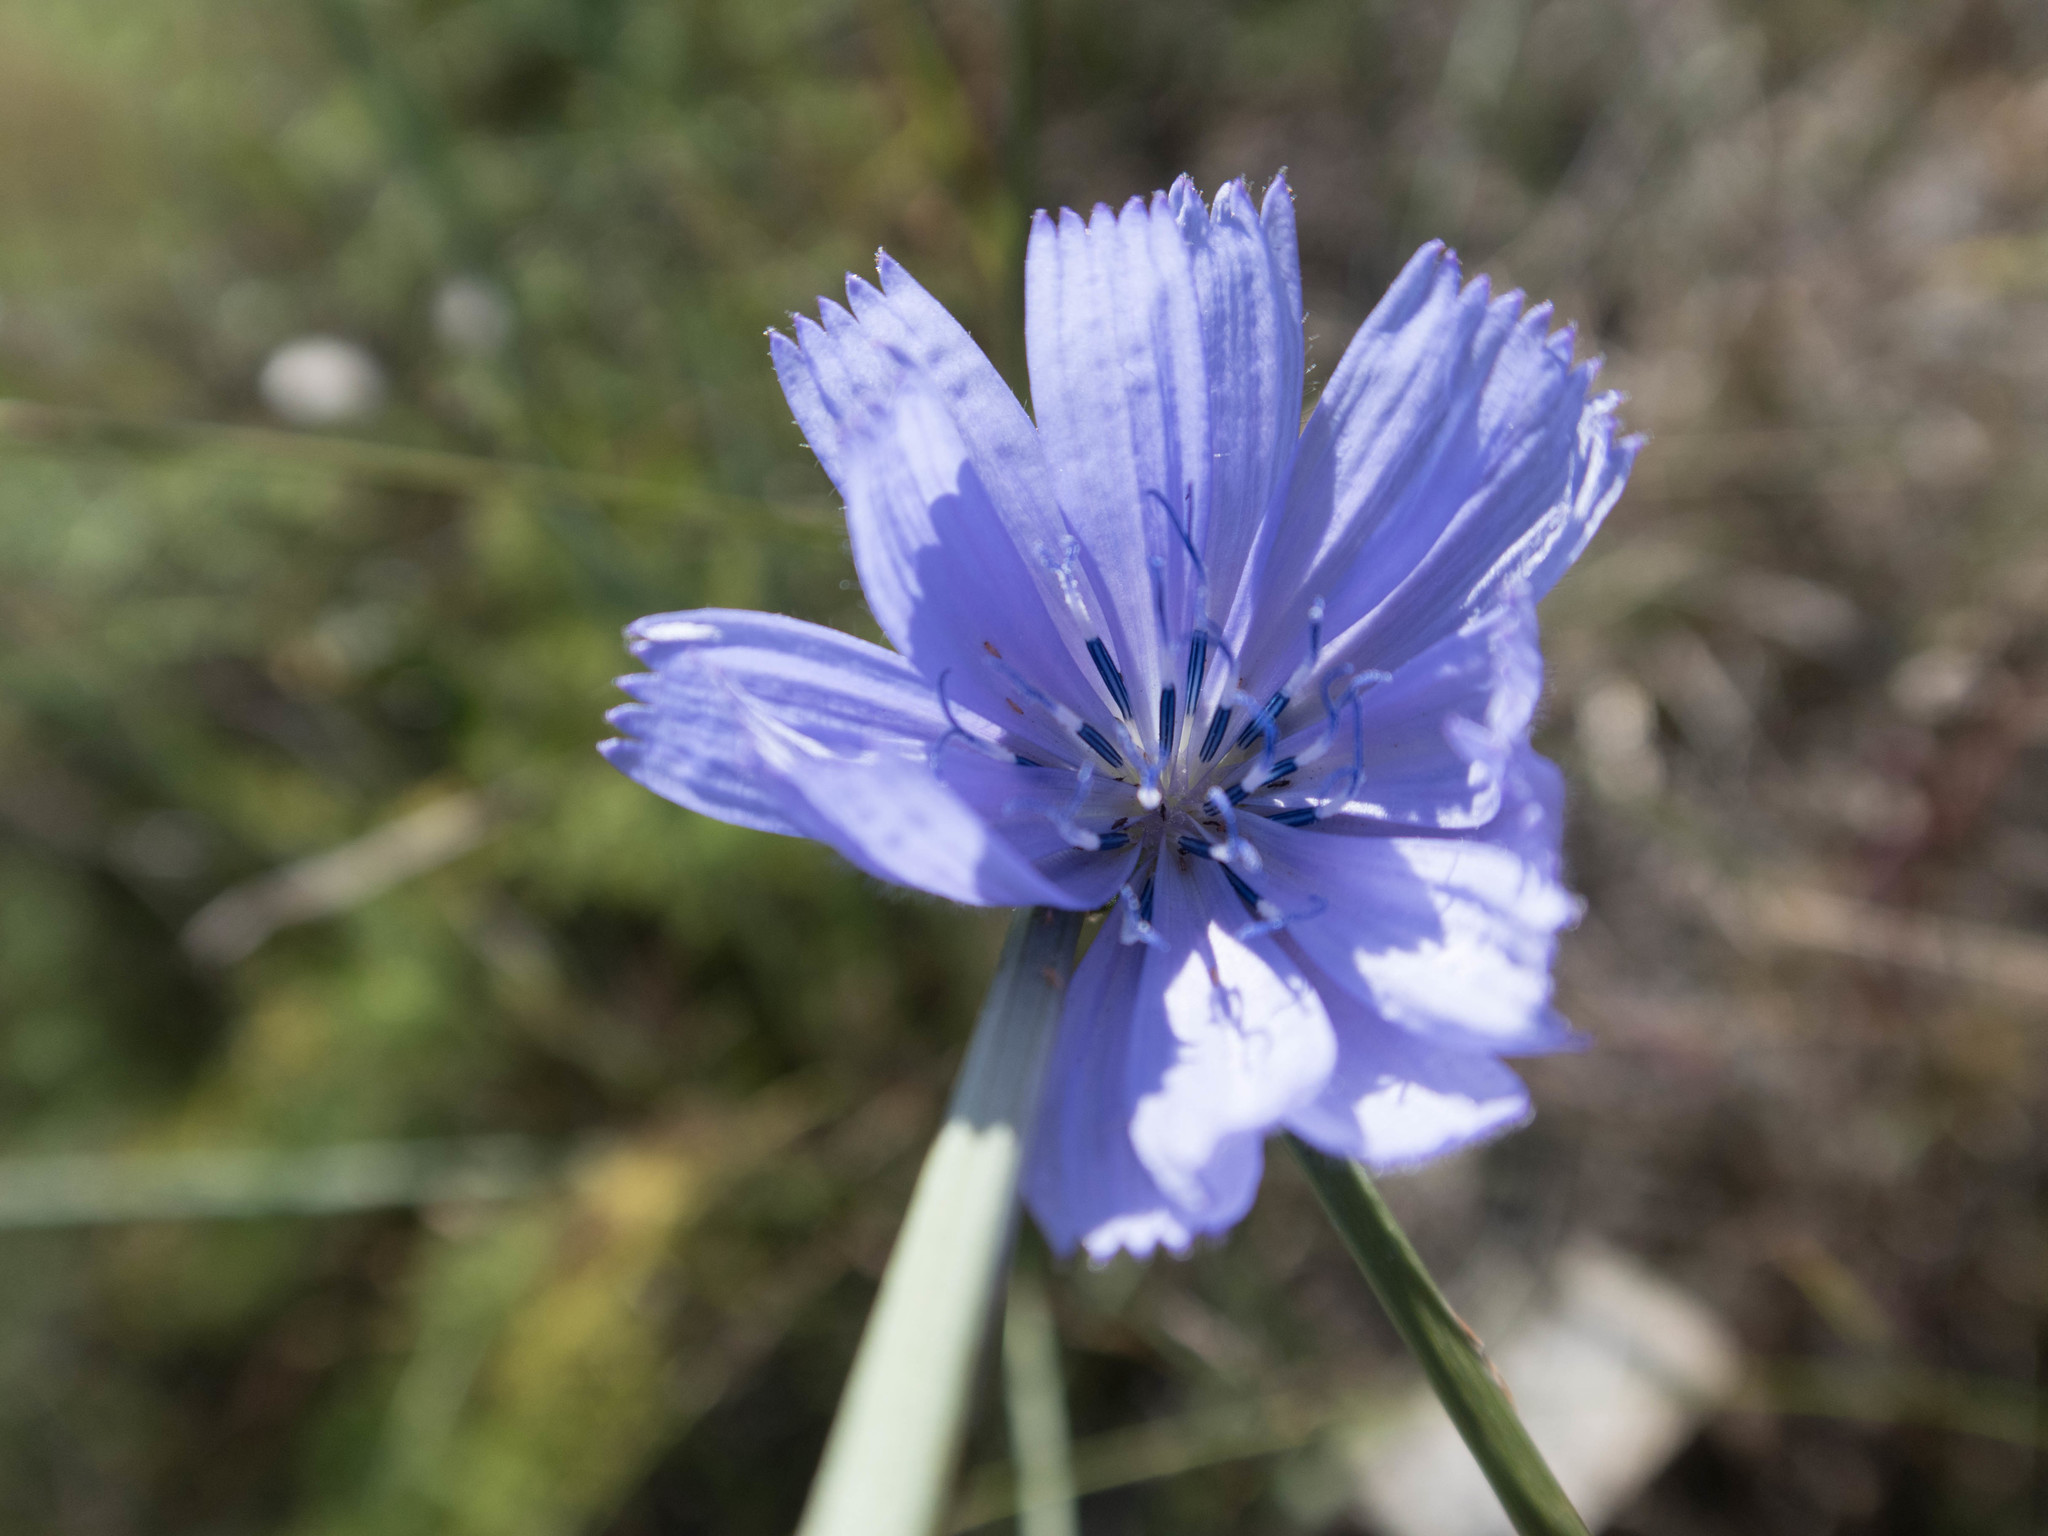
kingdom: Plantae
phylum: Tracheophyta
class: Magnoliopsida
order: Asterales
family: Asteraceae
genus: Cichorium
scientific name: Cichorium intybus
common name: Chicory
